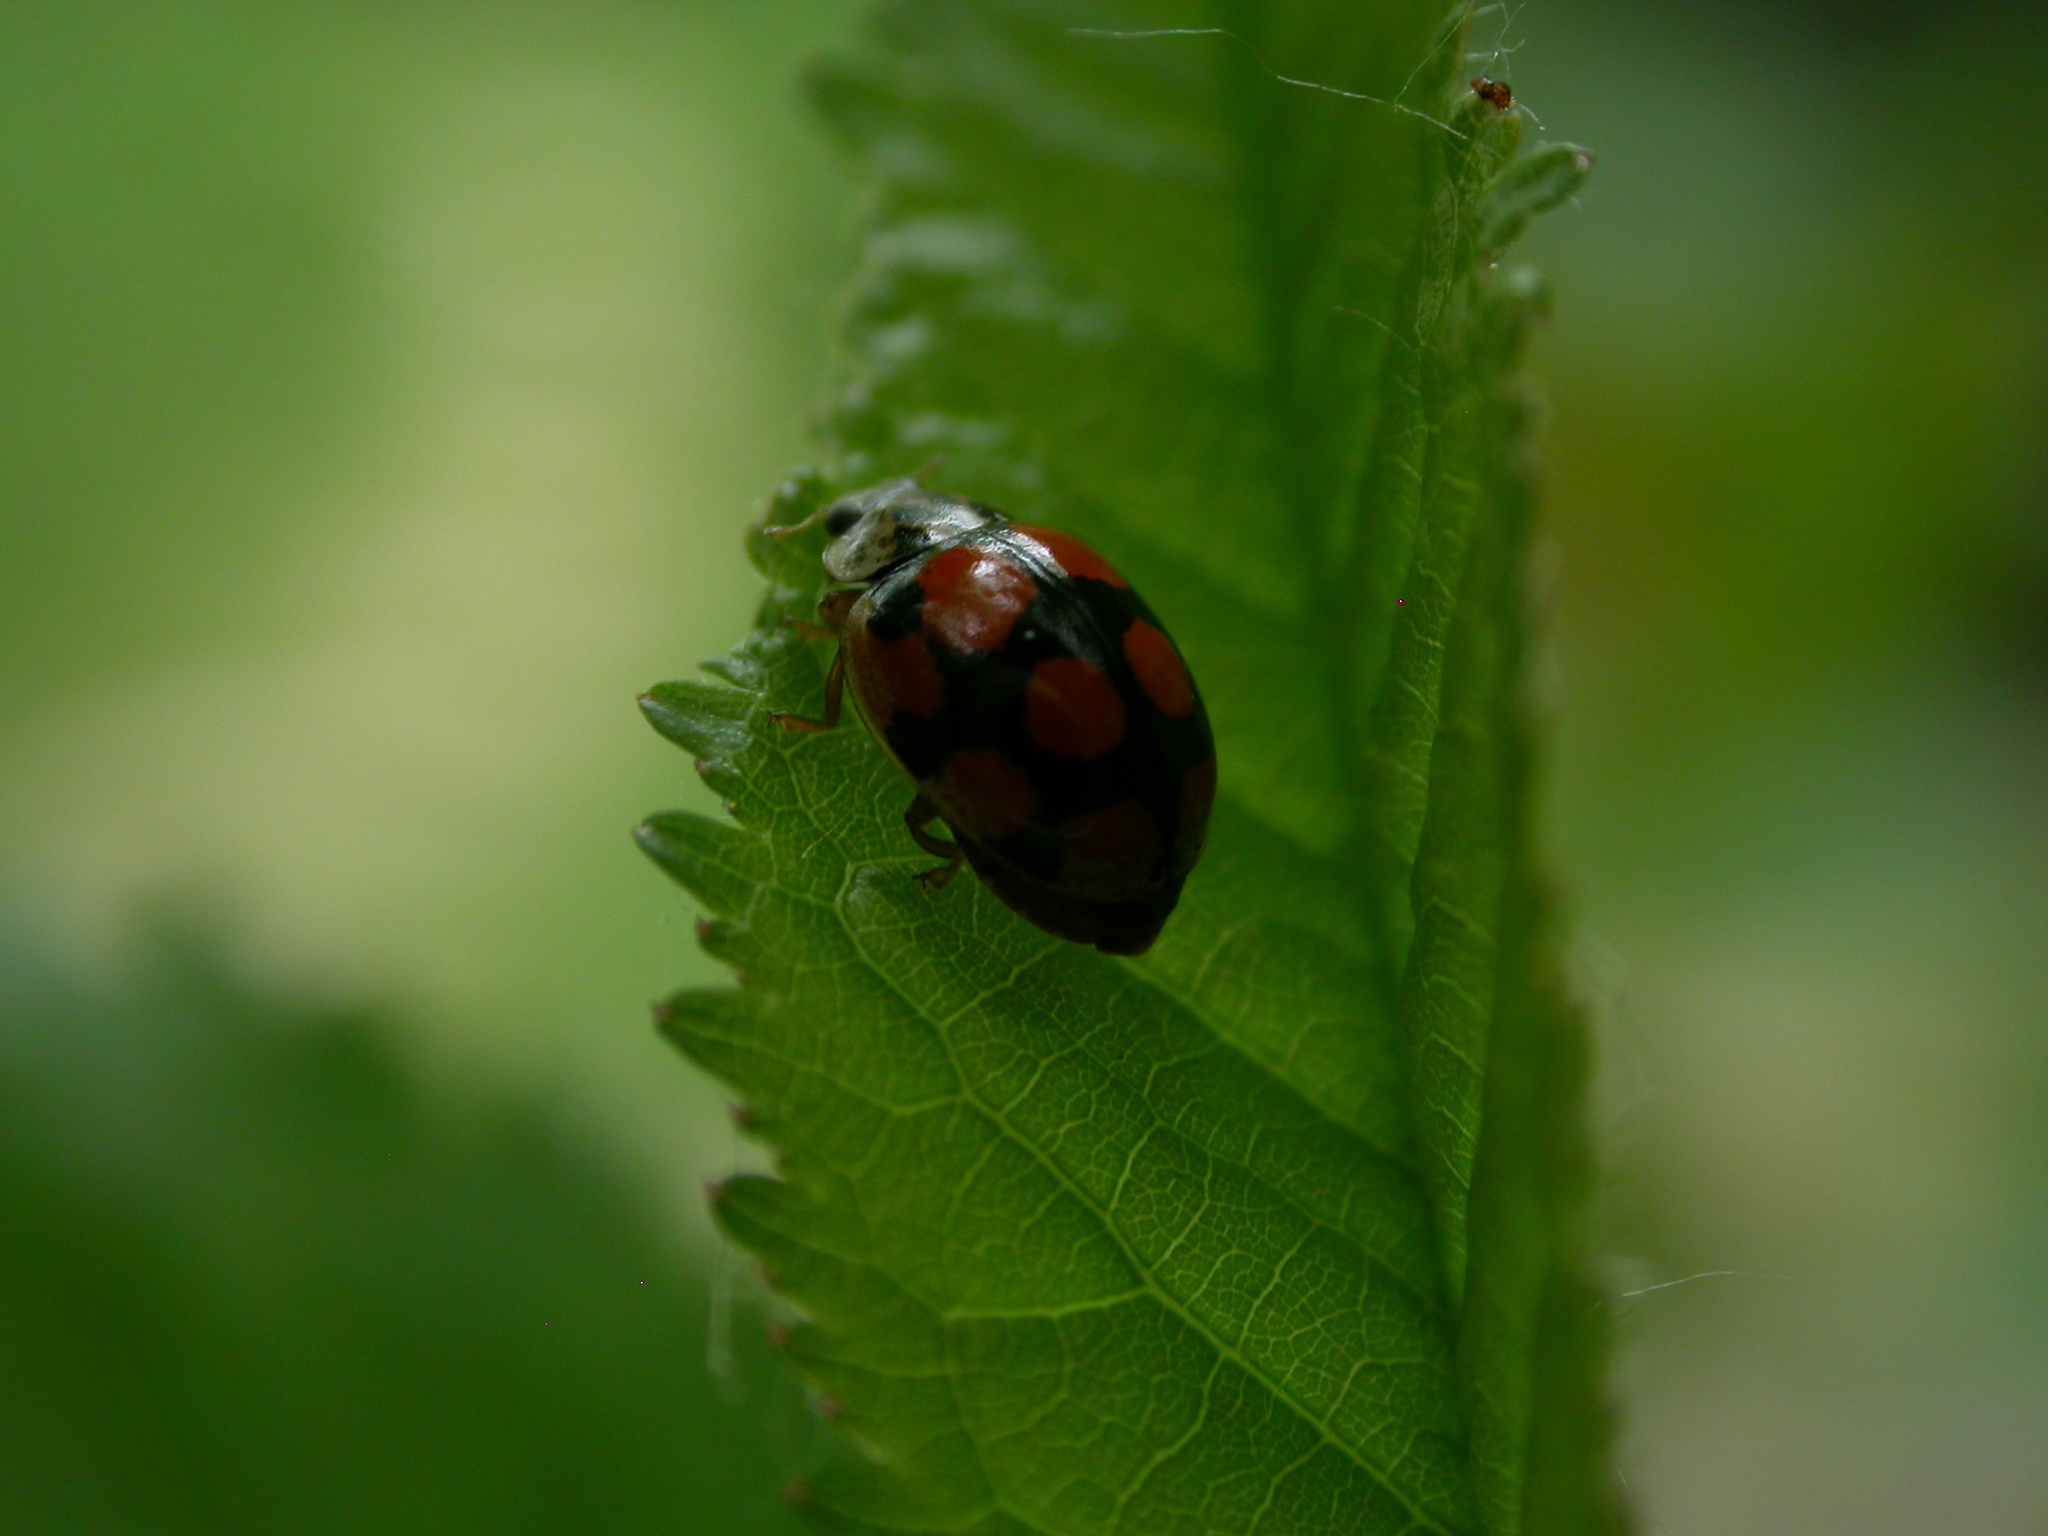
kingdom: Animalia
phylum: Arthropoda
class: Insecta
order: Coleoptera
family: Coccinellidae
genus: Adalia
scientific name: Adalia decempunctata
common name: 10-spot ladybird
